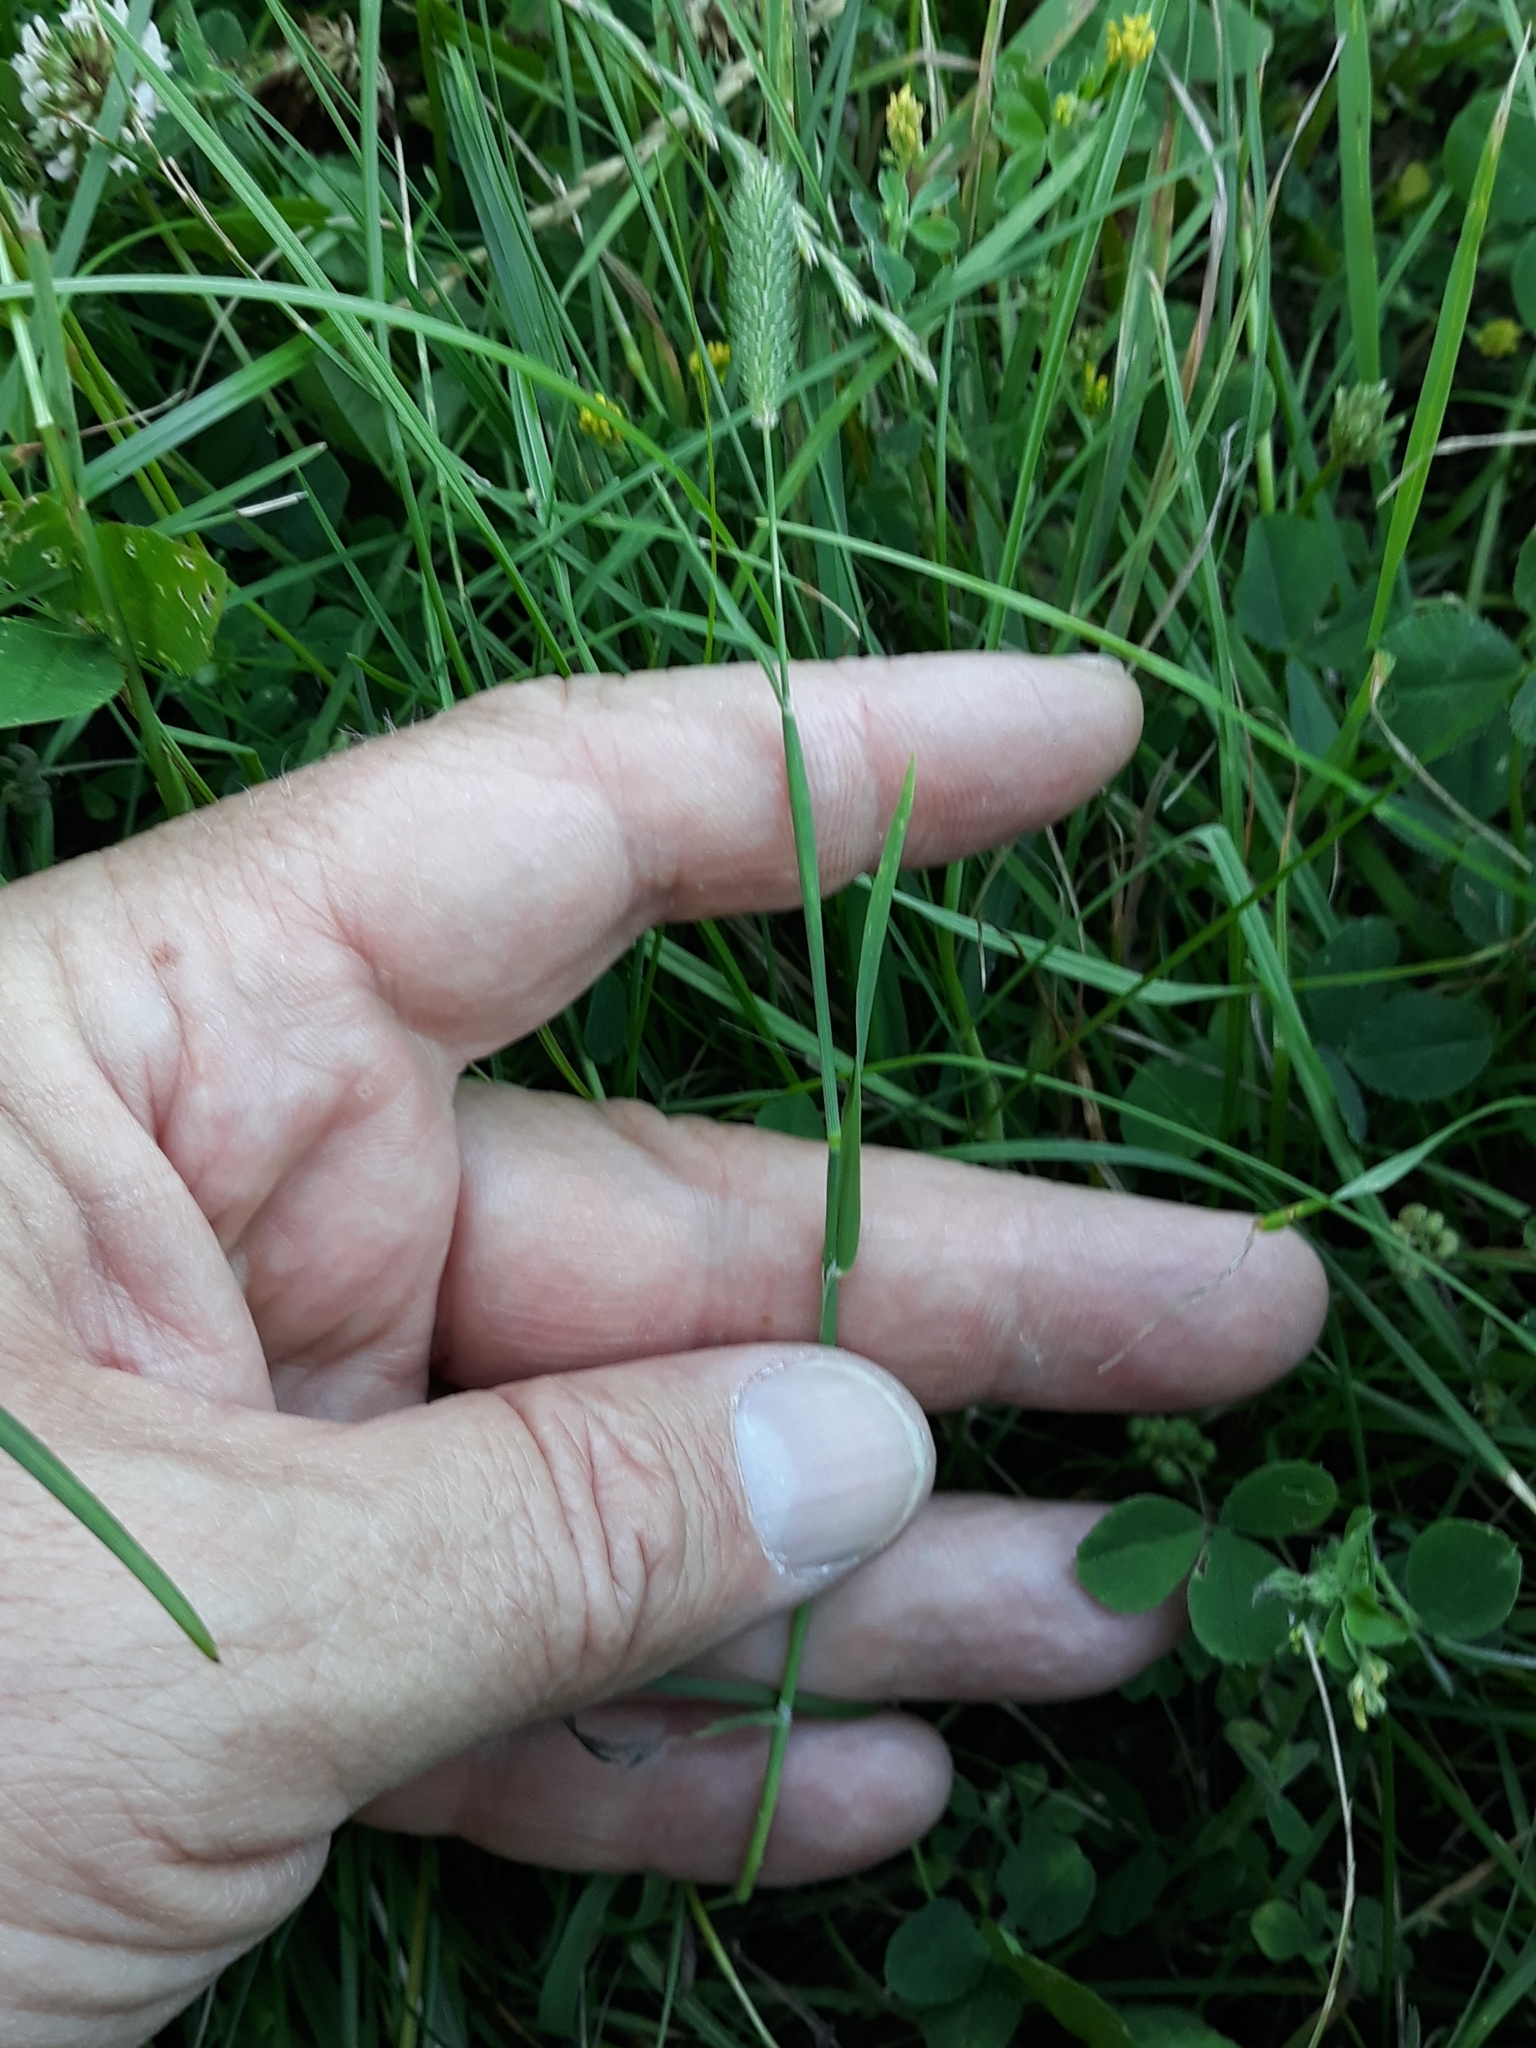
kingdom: Plantae
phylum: Tracheophyta
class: Liliopsida
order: Poales
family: Poaceae
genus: Phleum
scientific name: Phleum pratense
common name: Timothy grass
